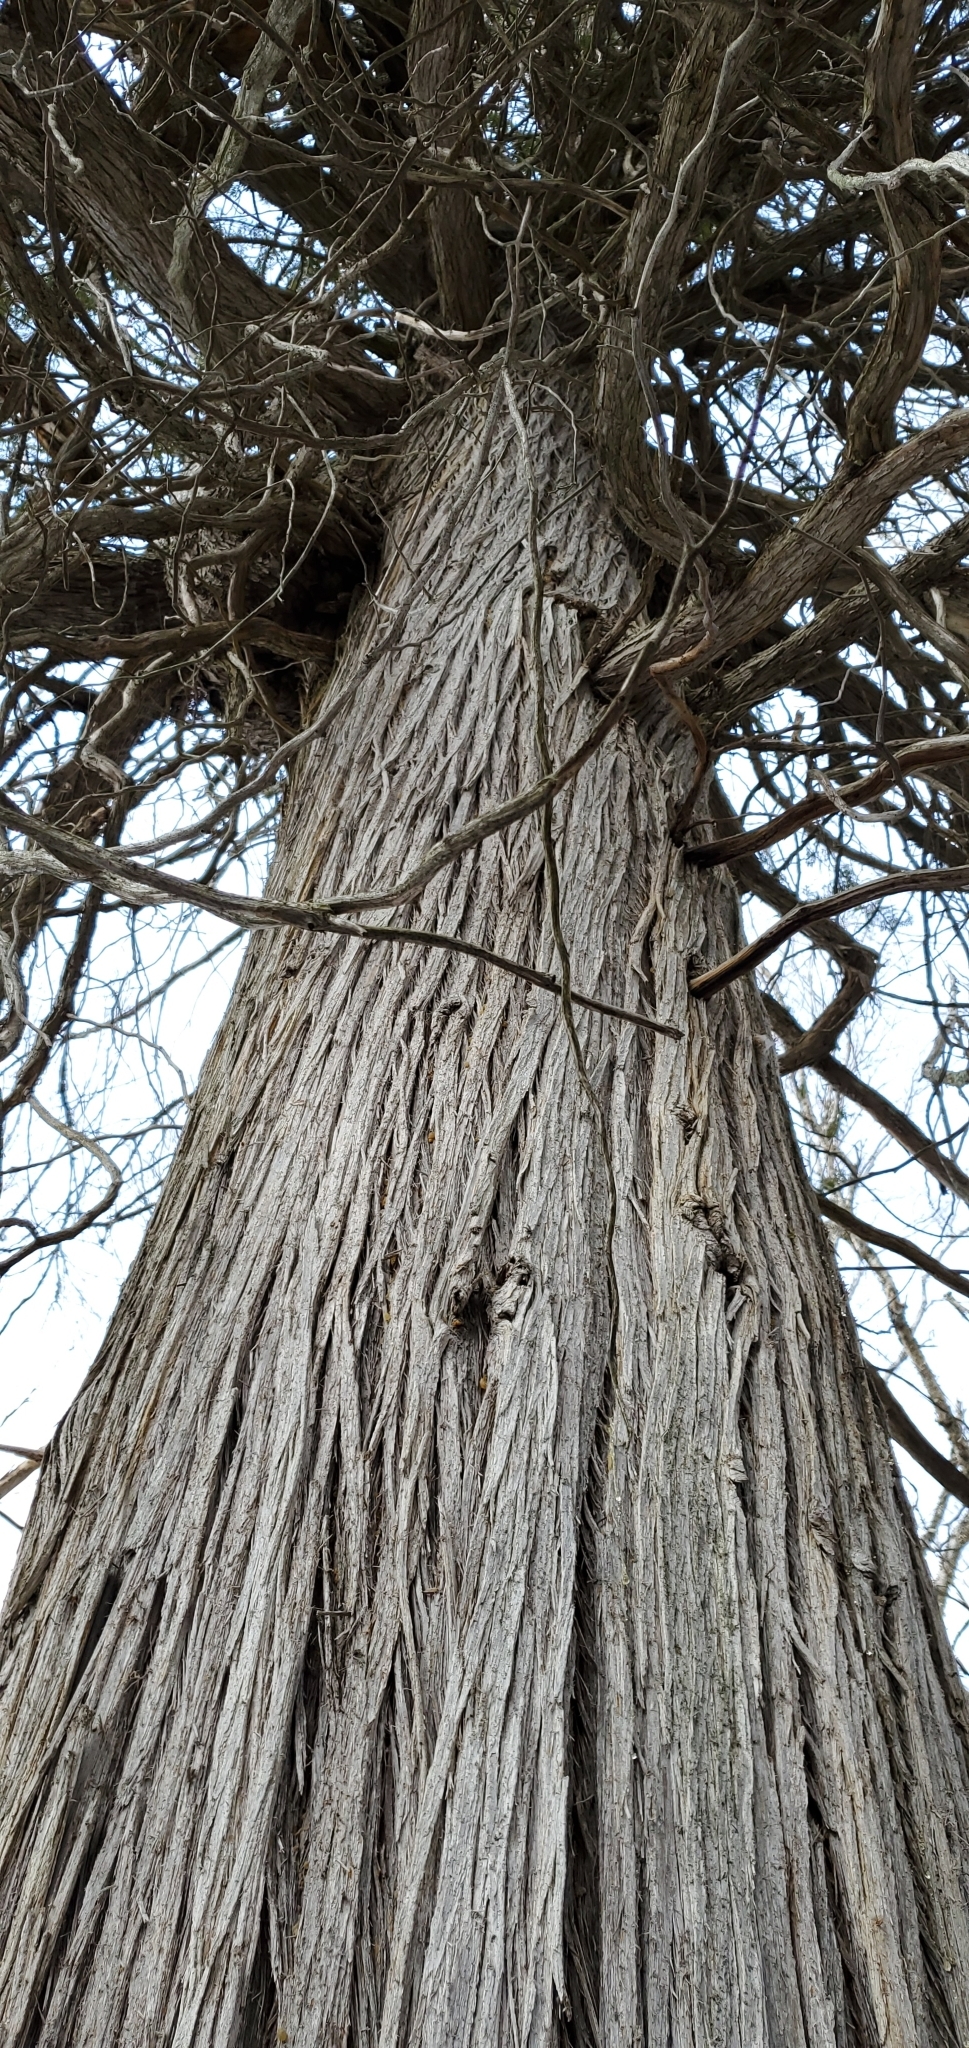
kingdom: Plantae
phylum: Tracheophyta
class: Pinopsida
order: Pinales
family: Cupressaceae
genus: Thuja
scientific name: Thuja occidentalis
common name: Northern white-cedar
